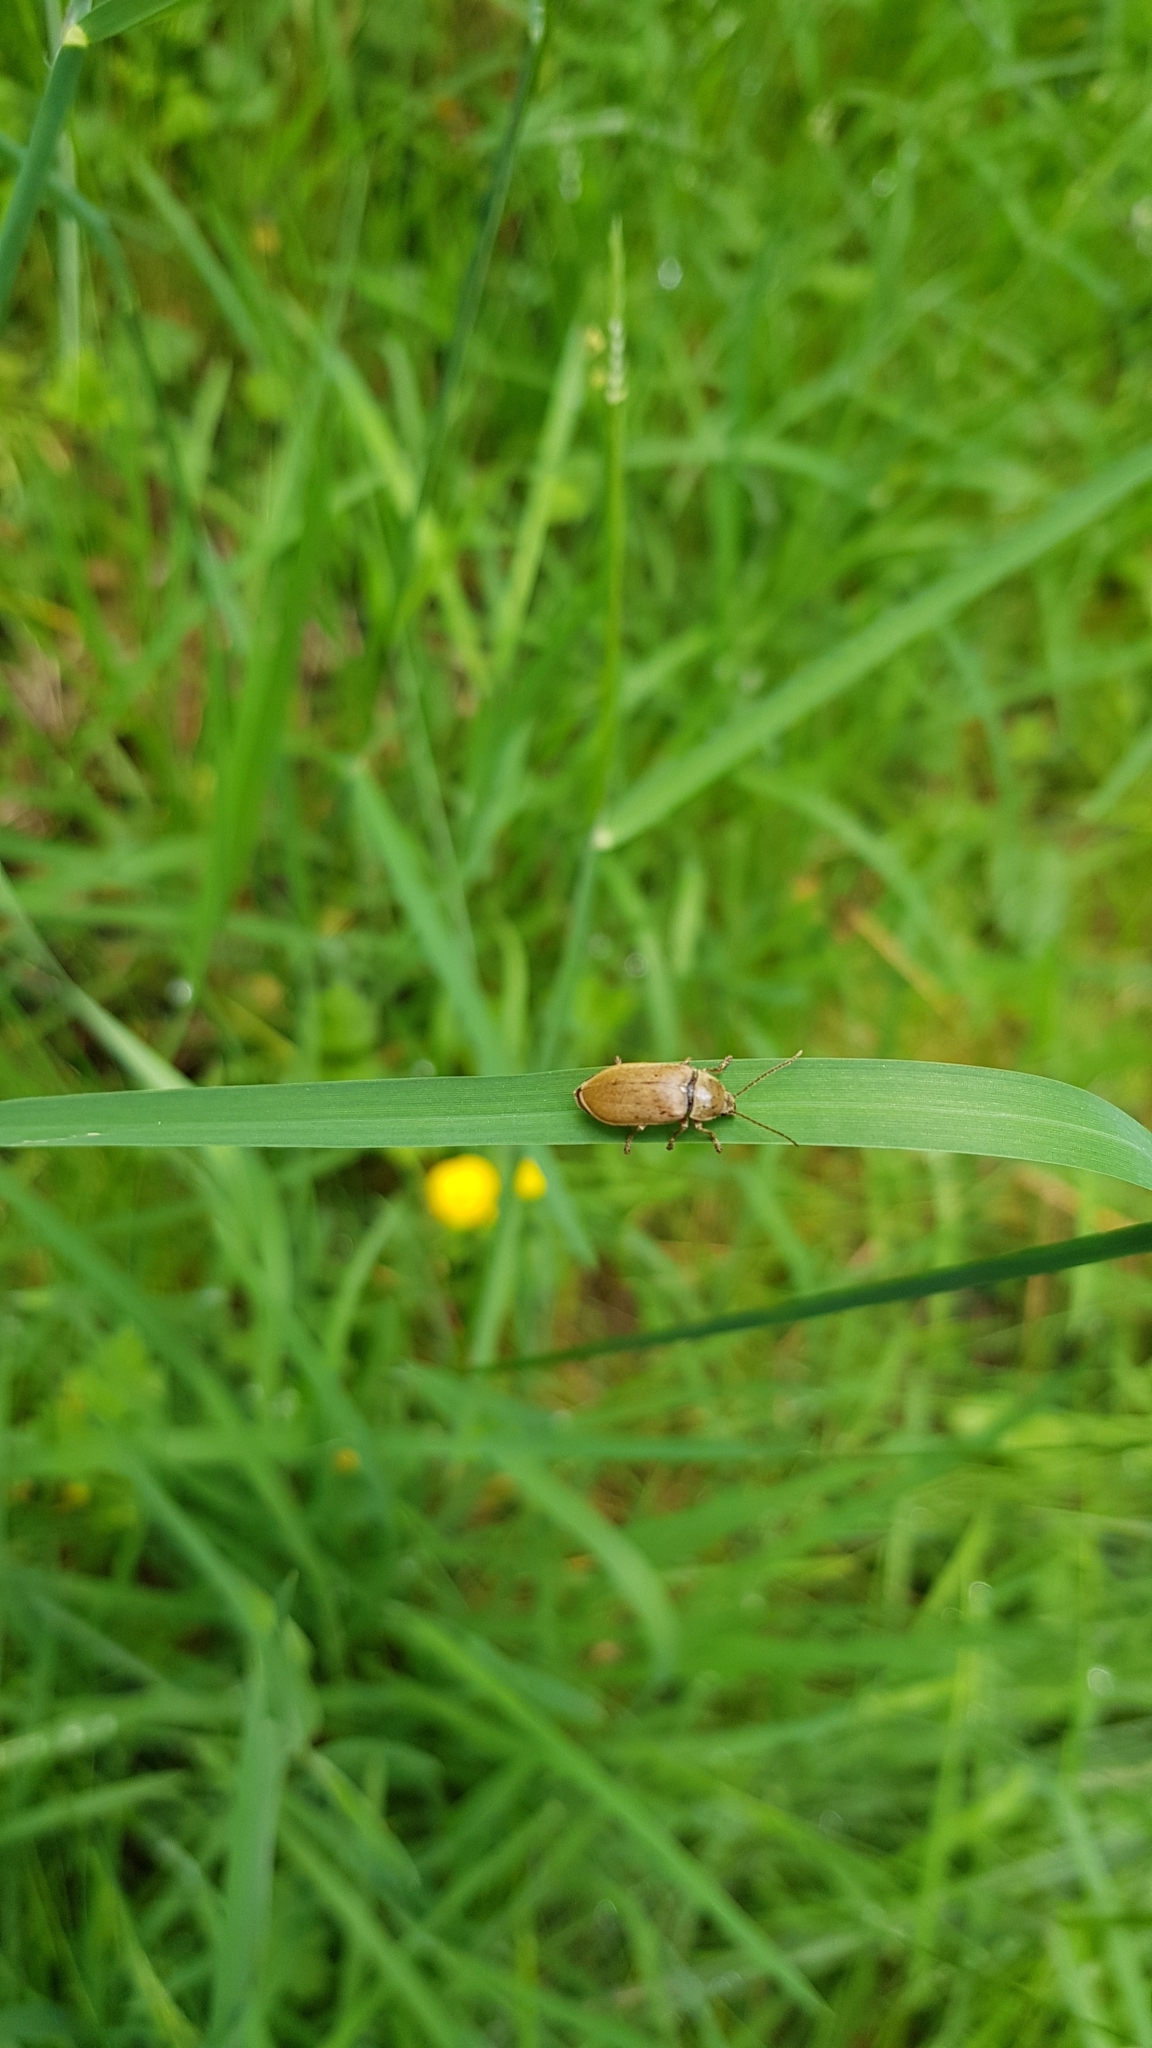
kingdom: Animalia
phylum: Arthropoda
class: Insecta
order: Coleoptera
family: Dascillidae
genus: Dascillus
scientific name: Dascillus cervinus
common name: Orchid beetle
